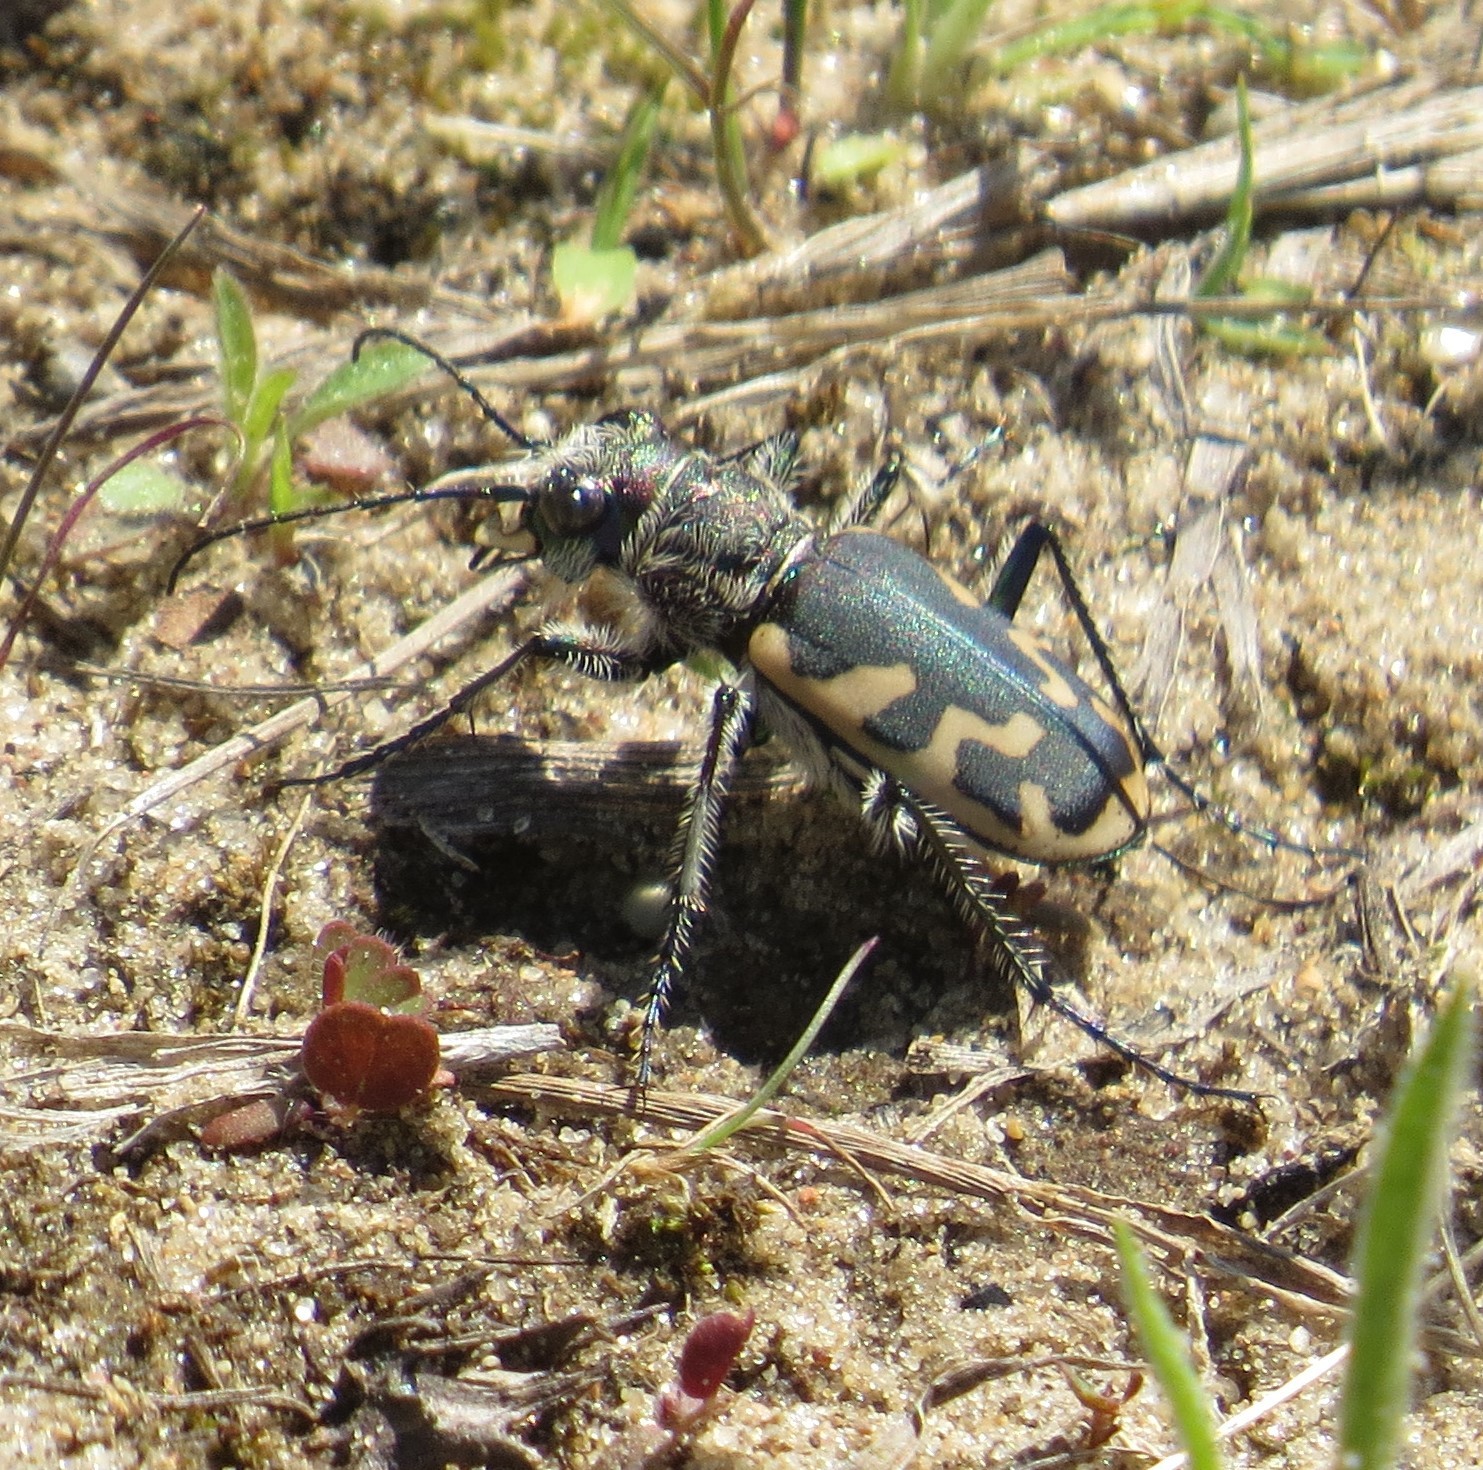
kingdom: Animalia
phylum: Arthropoda
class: Insecta
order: Coleoptera
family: Carabidae
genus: Cicindela
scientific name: Cicindela formosa
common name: Big sand tiger beetle
